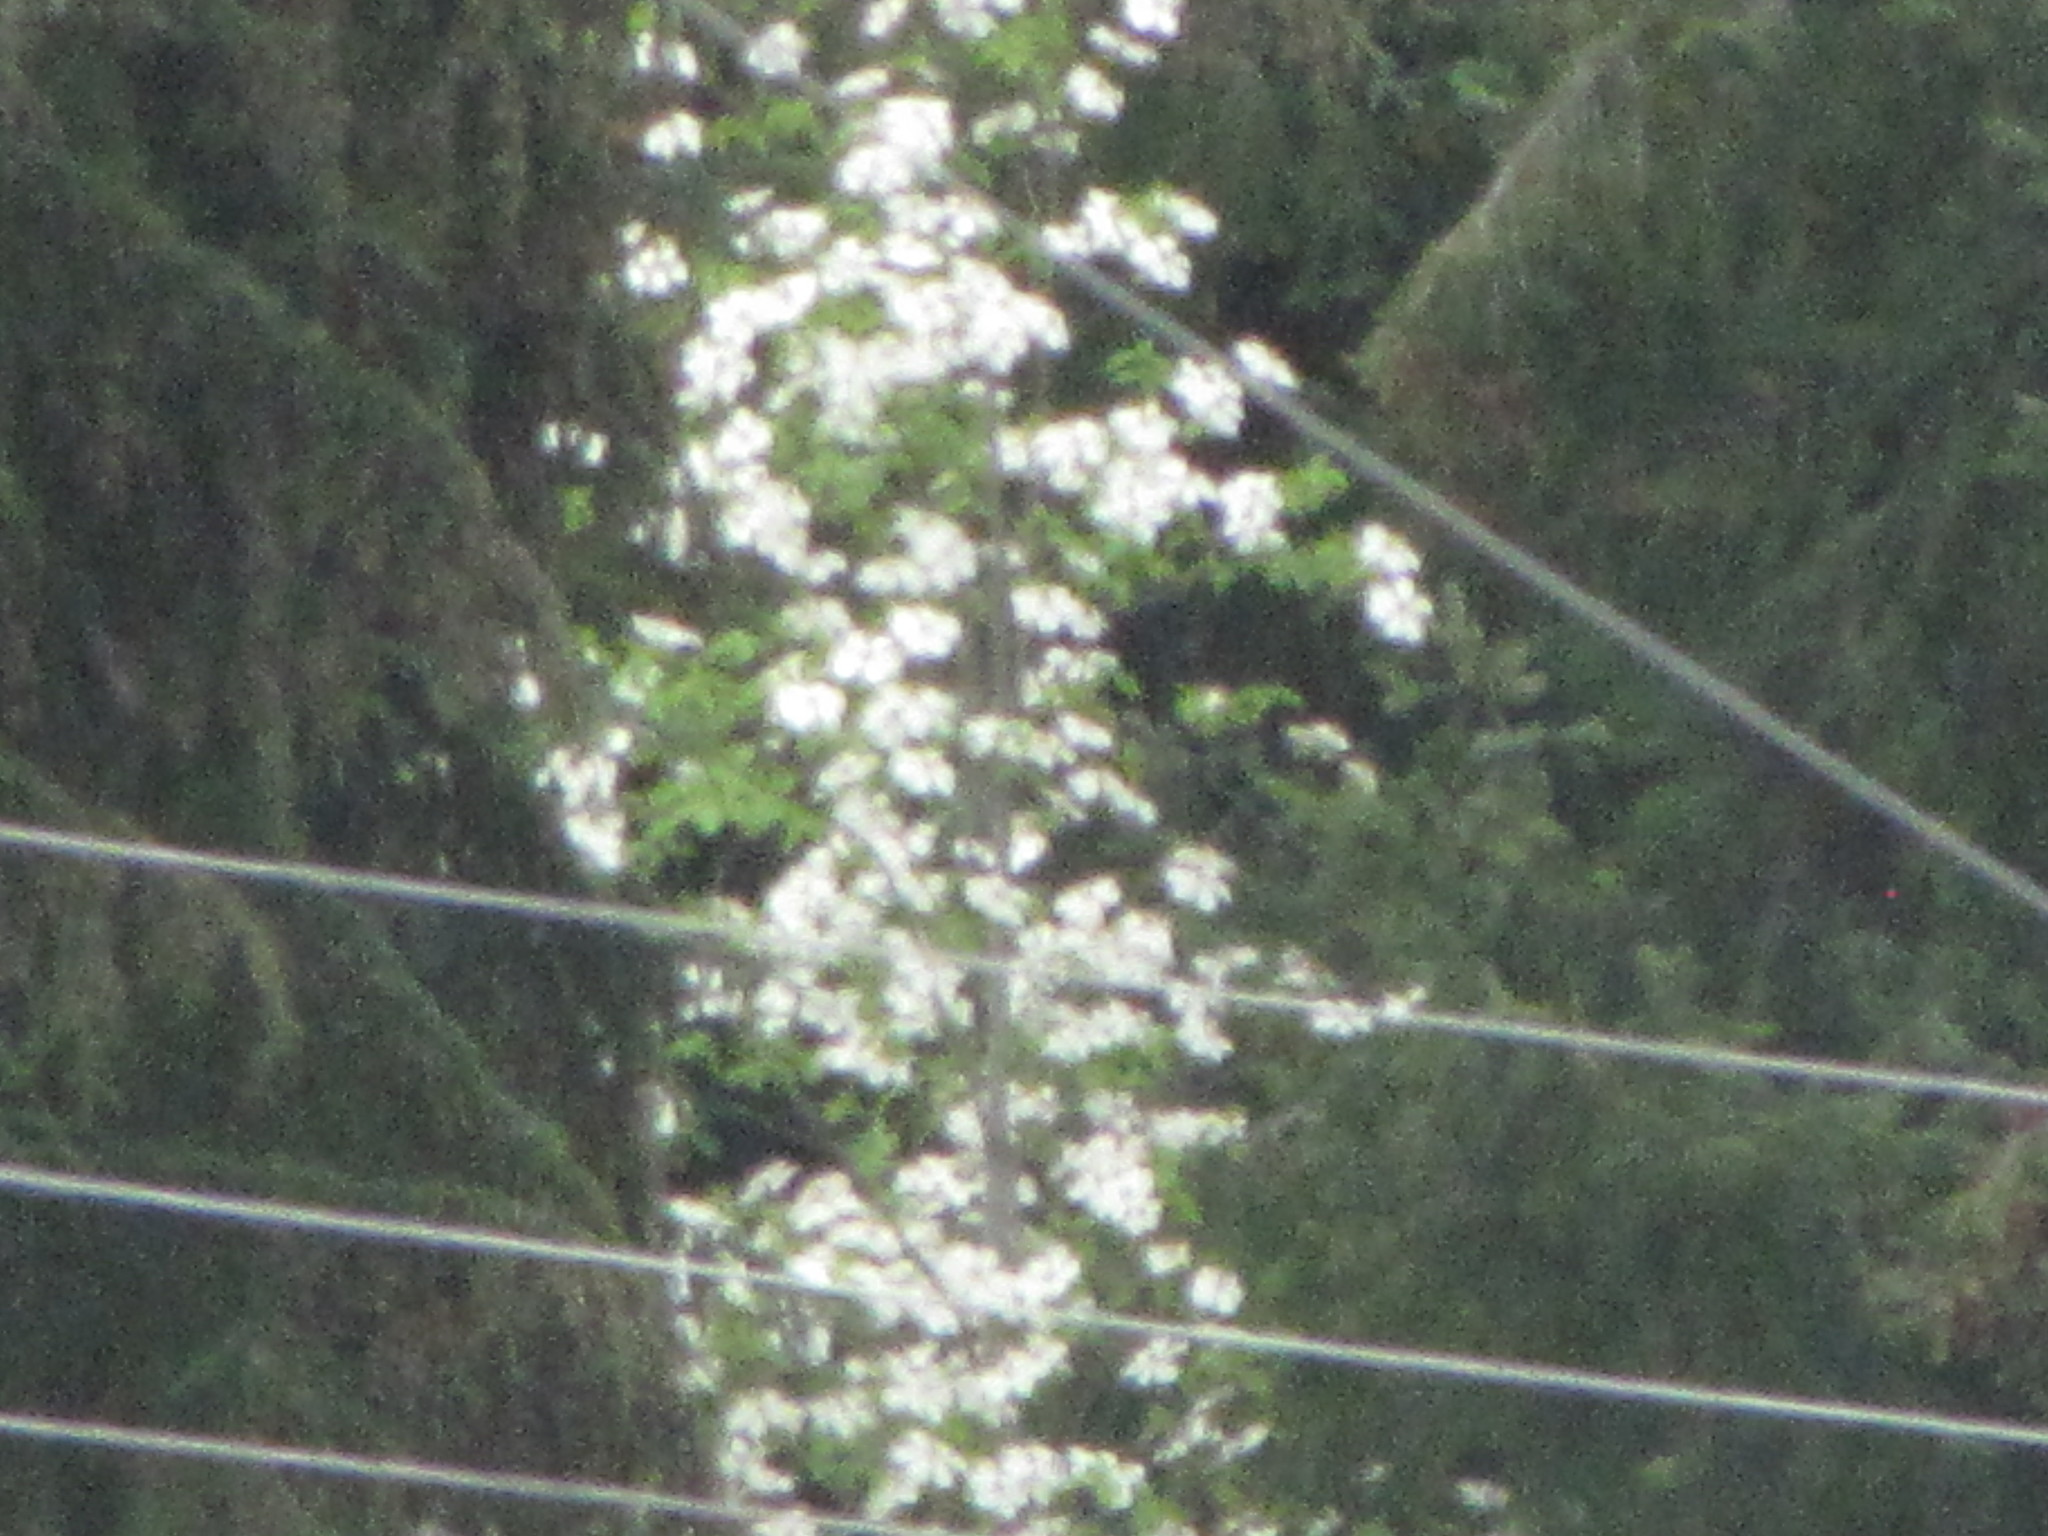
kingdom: Plantae
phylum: Tracheophyta
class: Magnoliopsida
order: Cornales
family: Cornaceae
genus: Cornus
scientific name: Cornus nuttallii
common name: Pacific dogwood
